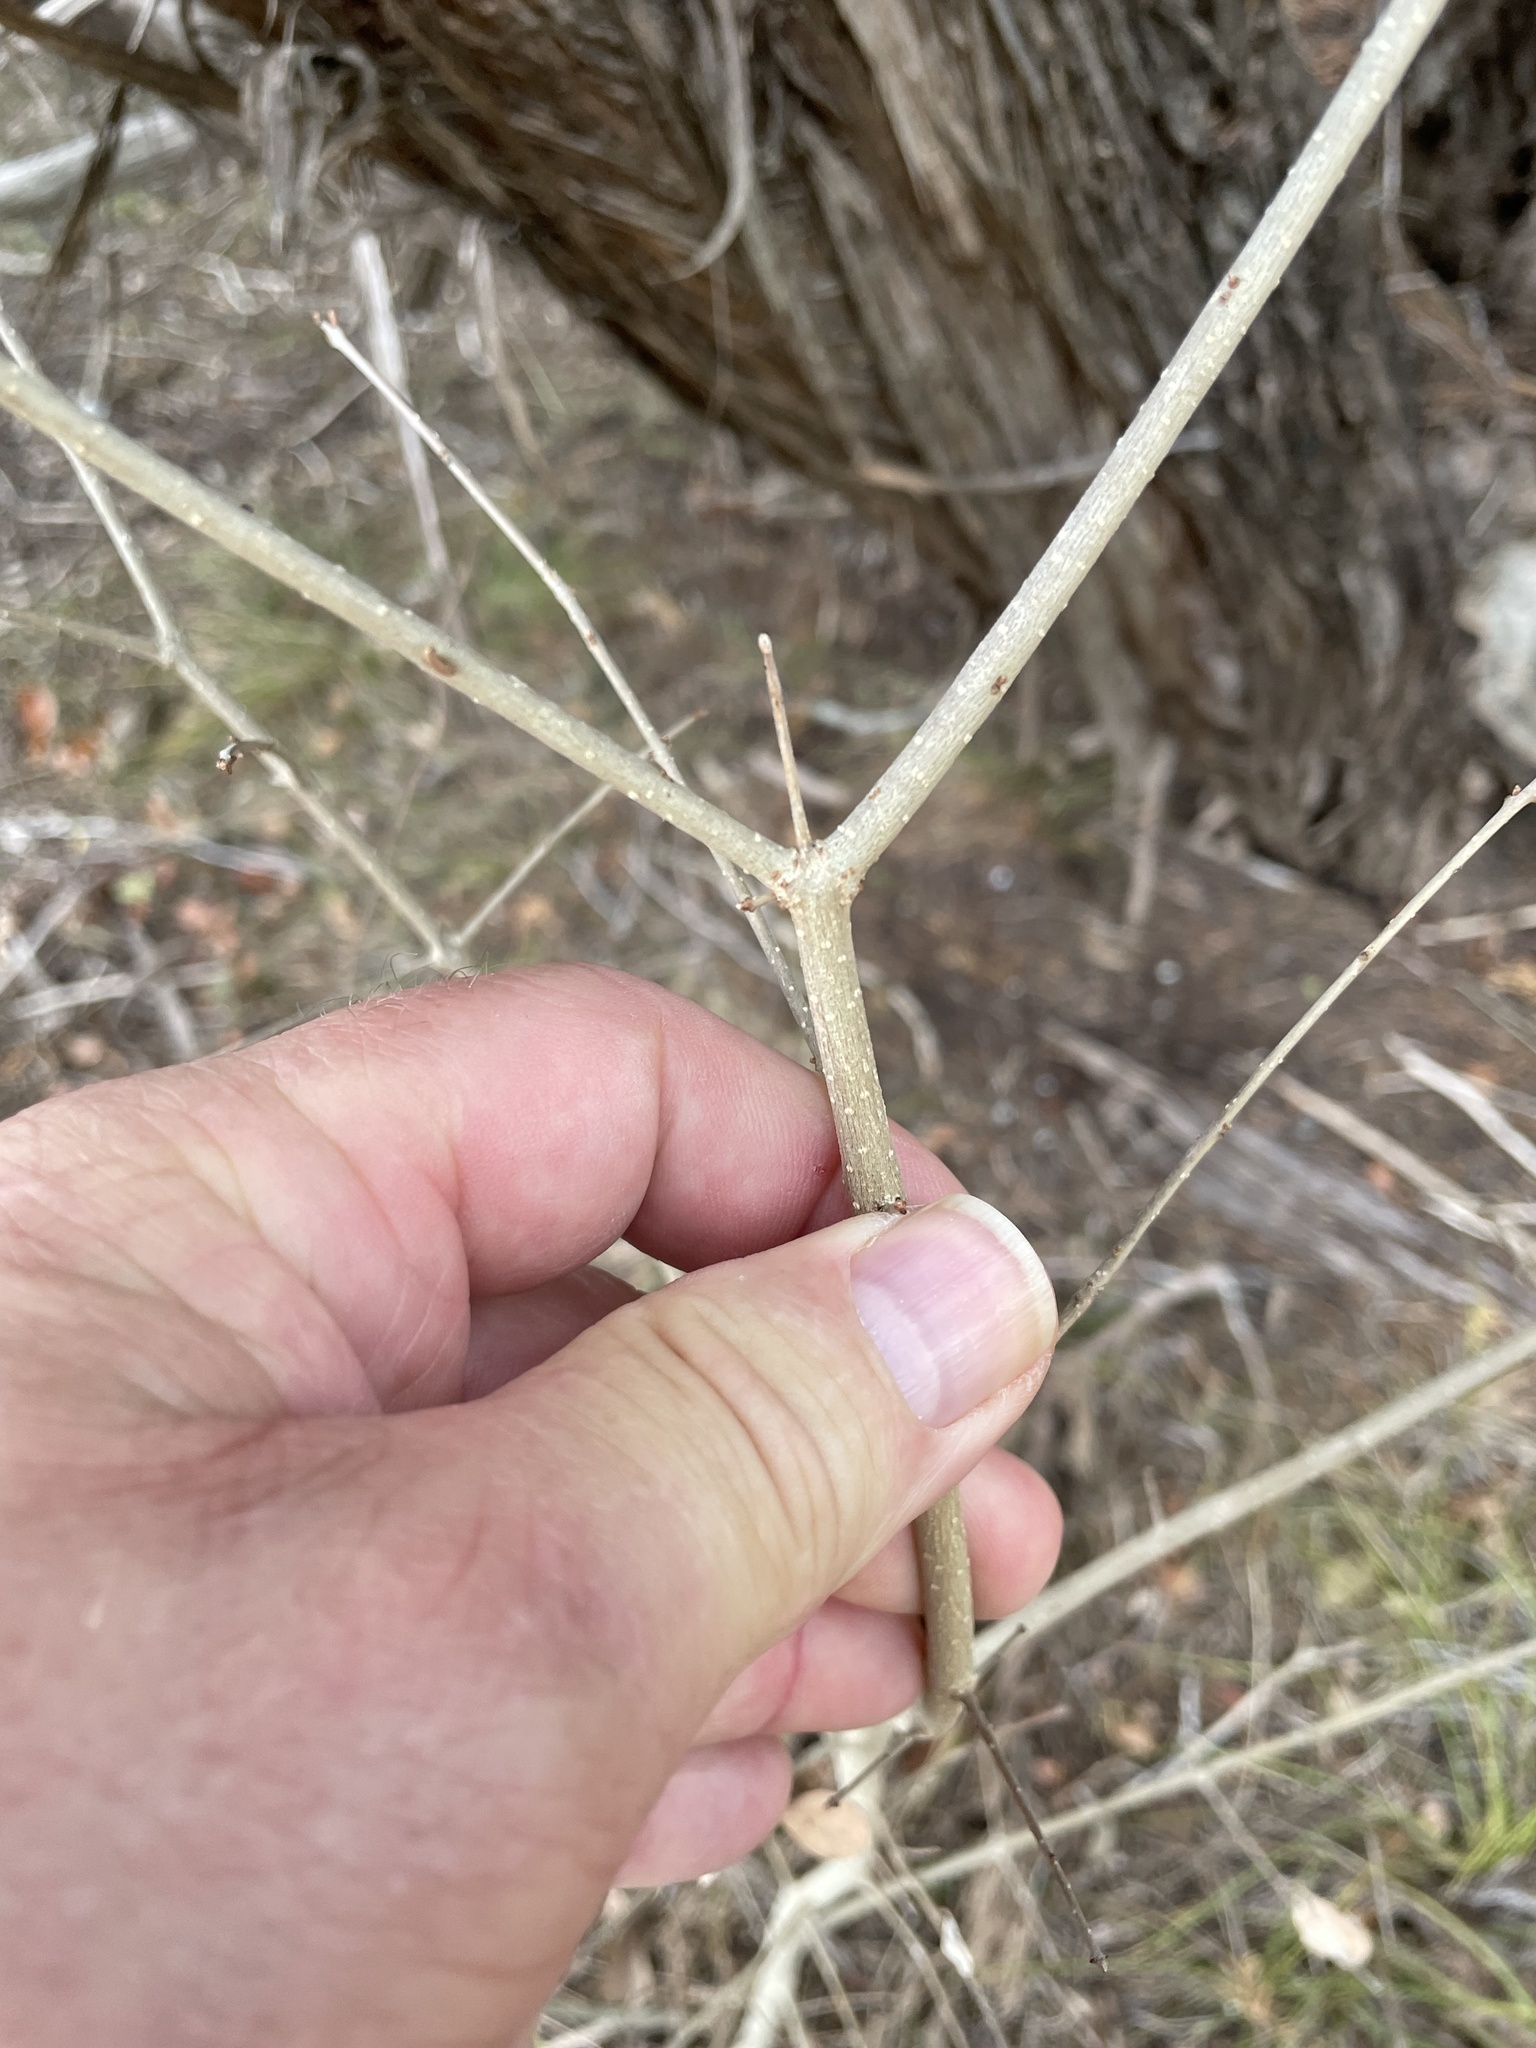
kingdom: Plantae
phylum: Tracheophyta
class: Magnoliopsida
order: Lamiales
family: Oleaceae
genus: Forestiera
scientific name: Forestiera pubescens
